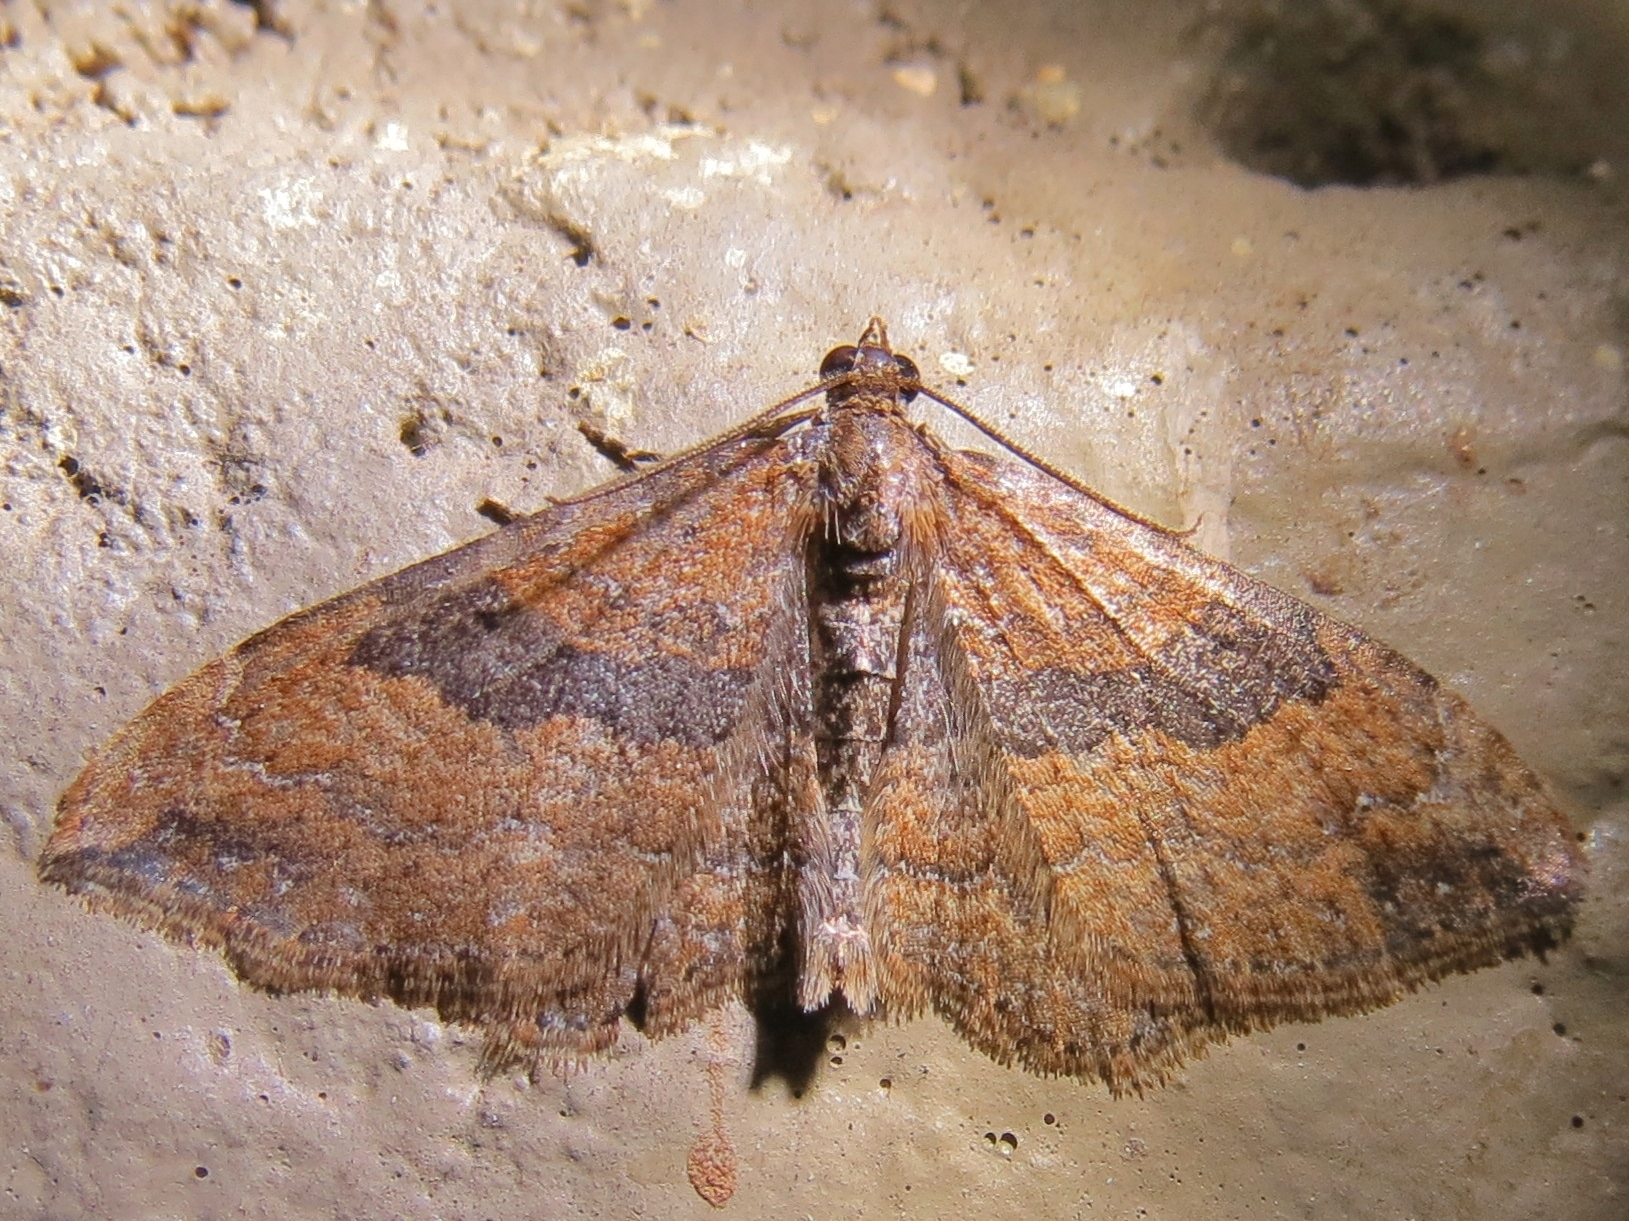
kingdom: Animalia
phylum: Arthropoda
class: Insecta
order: Lepidoptera
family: Geometridae
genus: Orthonama
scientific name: Orthonama obstipata
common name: The gem
